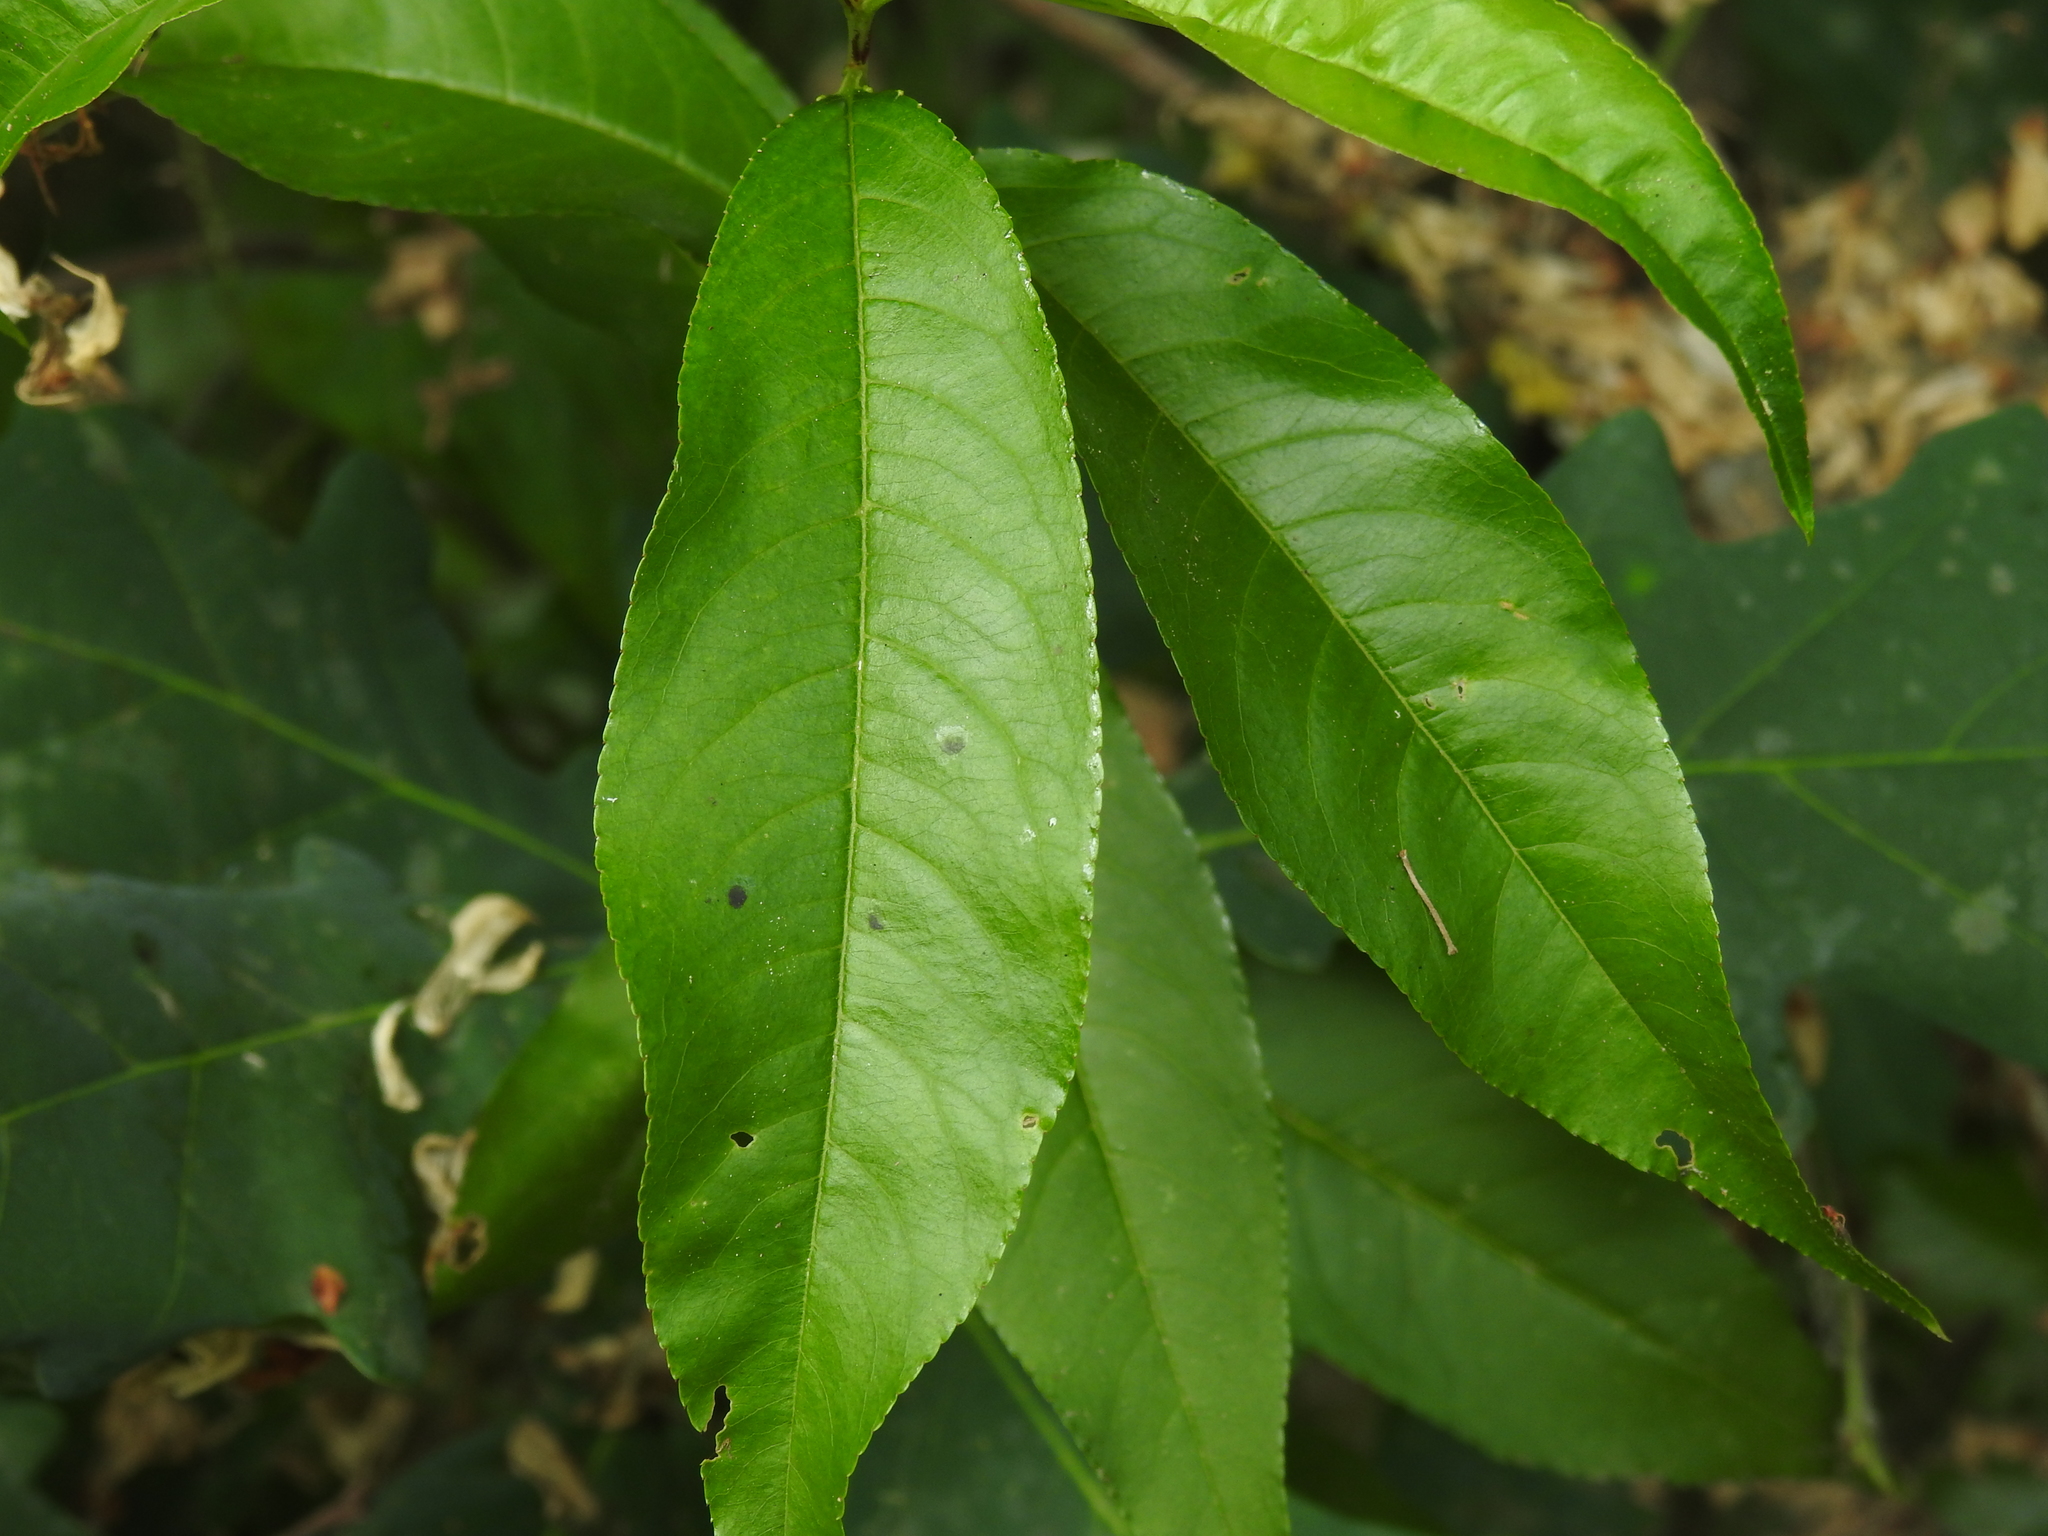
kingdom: Plantae
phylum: Tracheophyta
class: Magnoliopsida
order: Rosales
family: Rosaceae
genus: Prunus
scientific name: Prunus persica
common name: Peach
